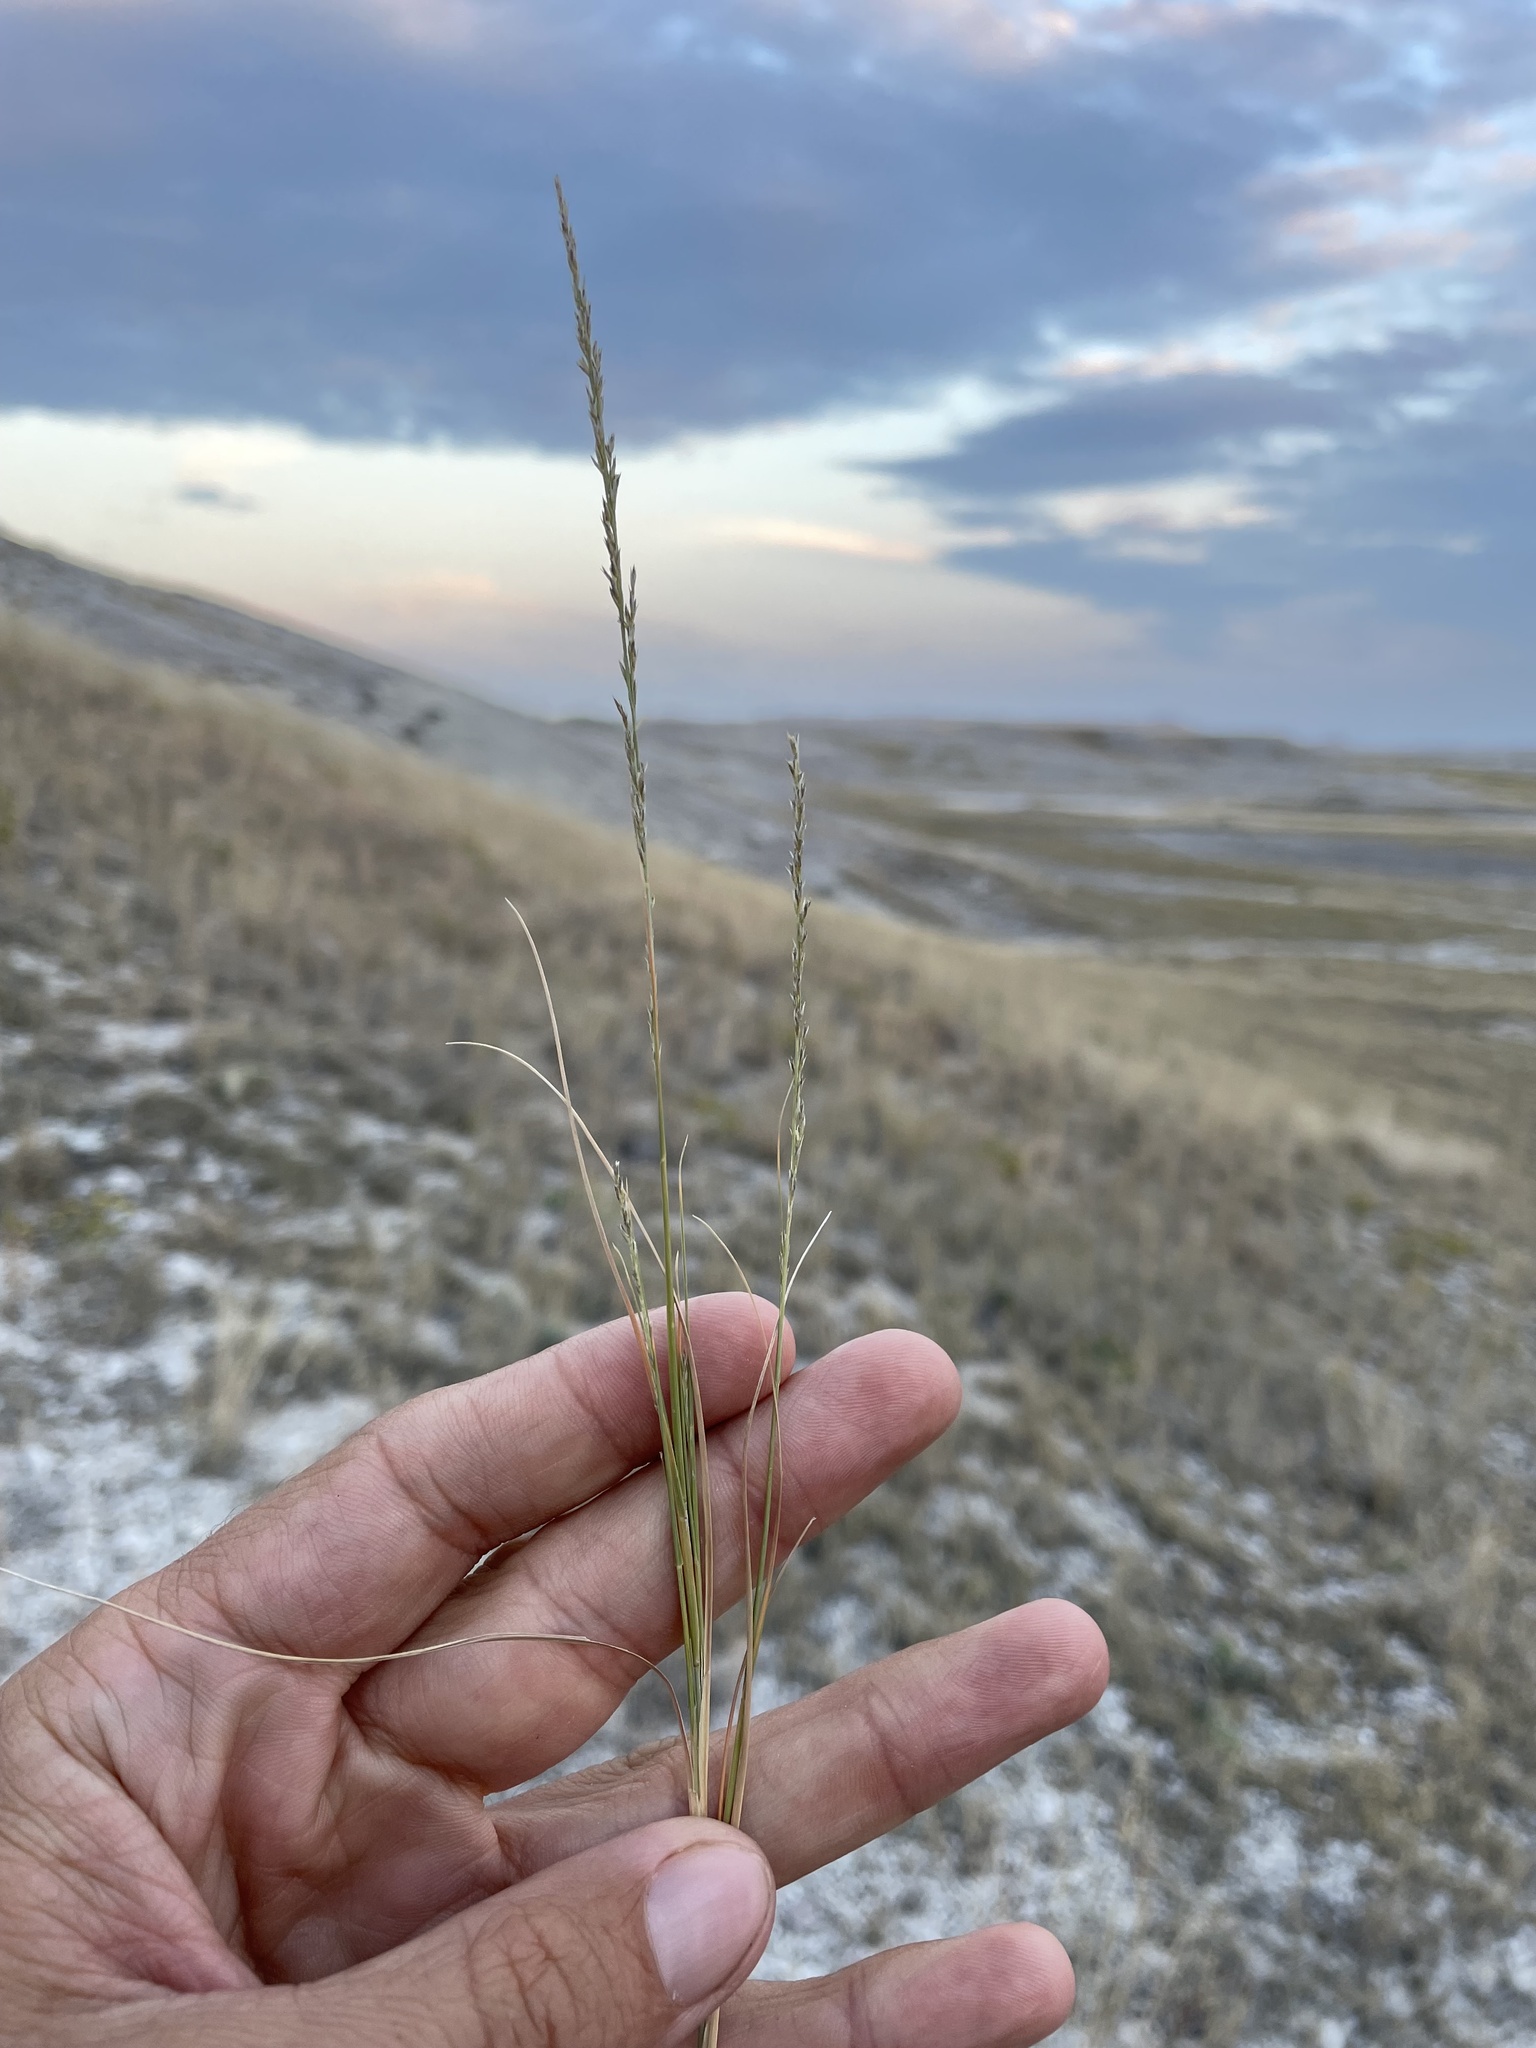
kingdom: Plantae
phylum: Tracheophyta
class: Liliopsida
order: Poales
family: Poaceae
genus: Muhlenbergia
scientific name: Muhlenbergia cuspidata
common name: Plains muhly
